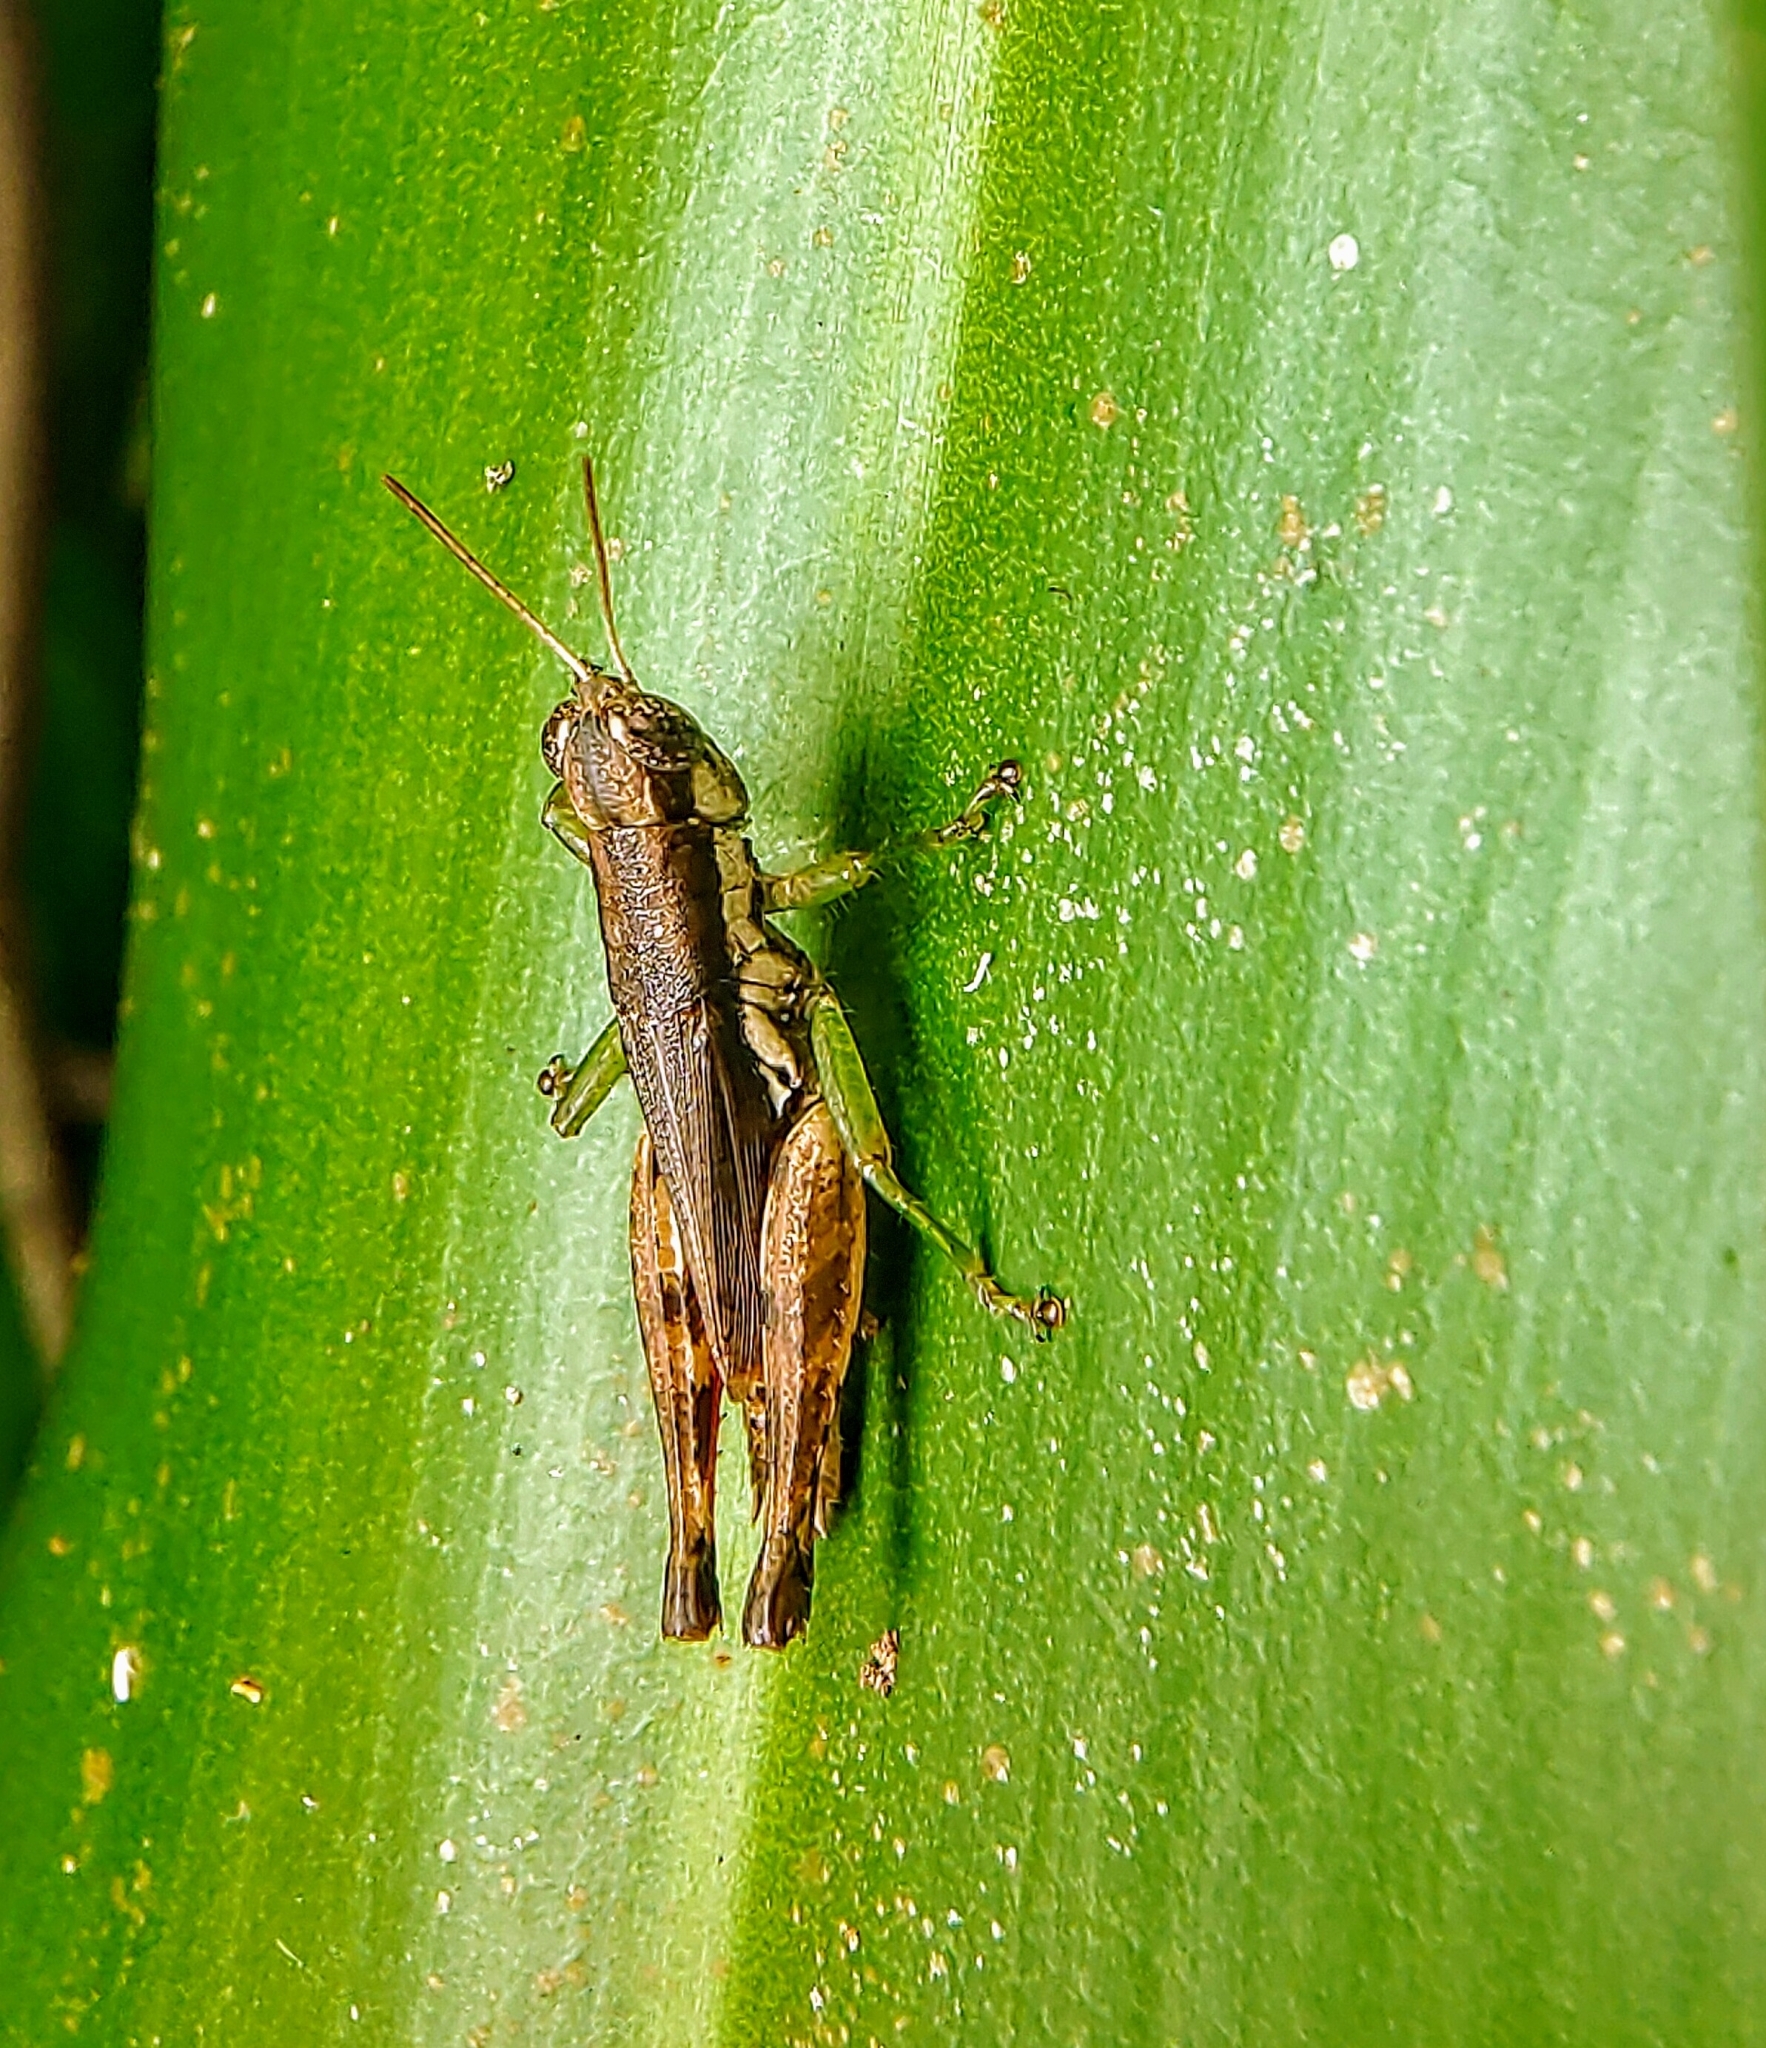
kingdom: Animalia
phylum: Arthropoda
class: Insecta
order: Orthoptera
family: Acrididae
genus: Pseudoxya
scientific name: Pseudoxya diminuta
